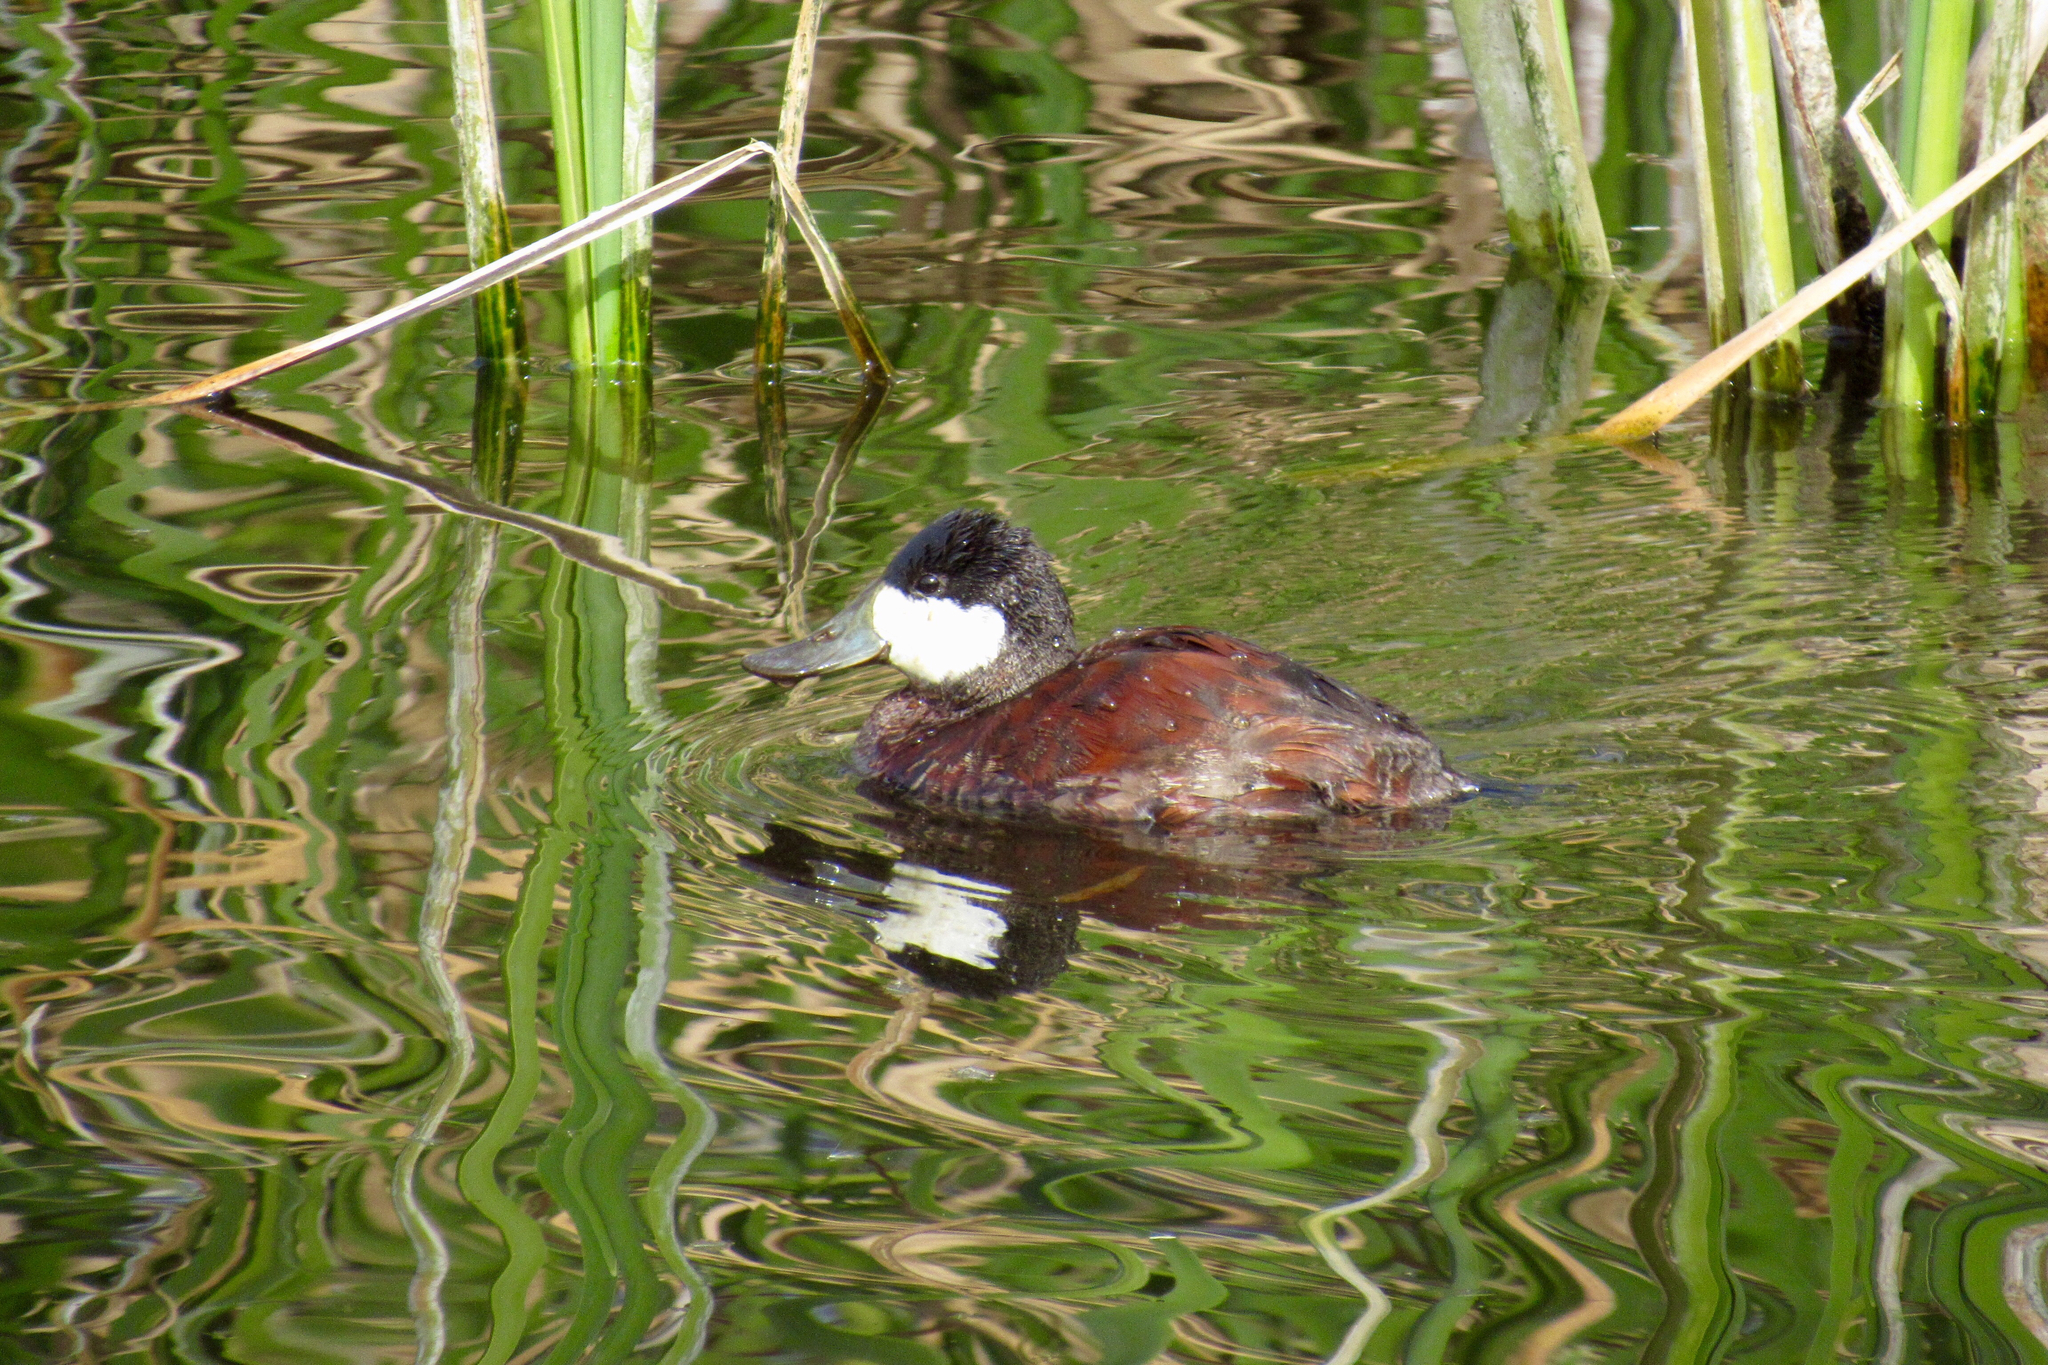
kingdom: Animalia
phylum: Chordata
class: Aves
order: Anseriformes
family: Anatidae
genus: Oxyura
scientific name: Oxyura jamaicensis
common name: Ruddy duck
